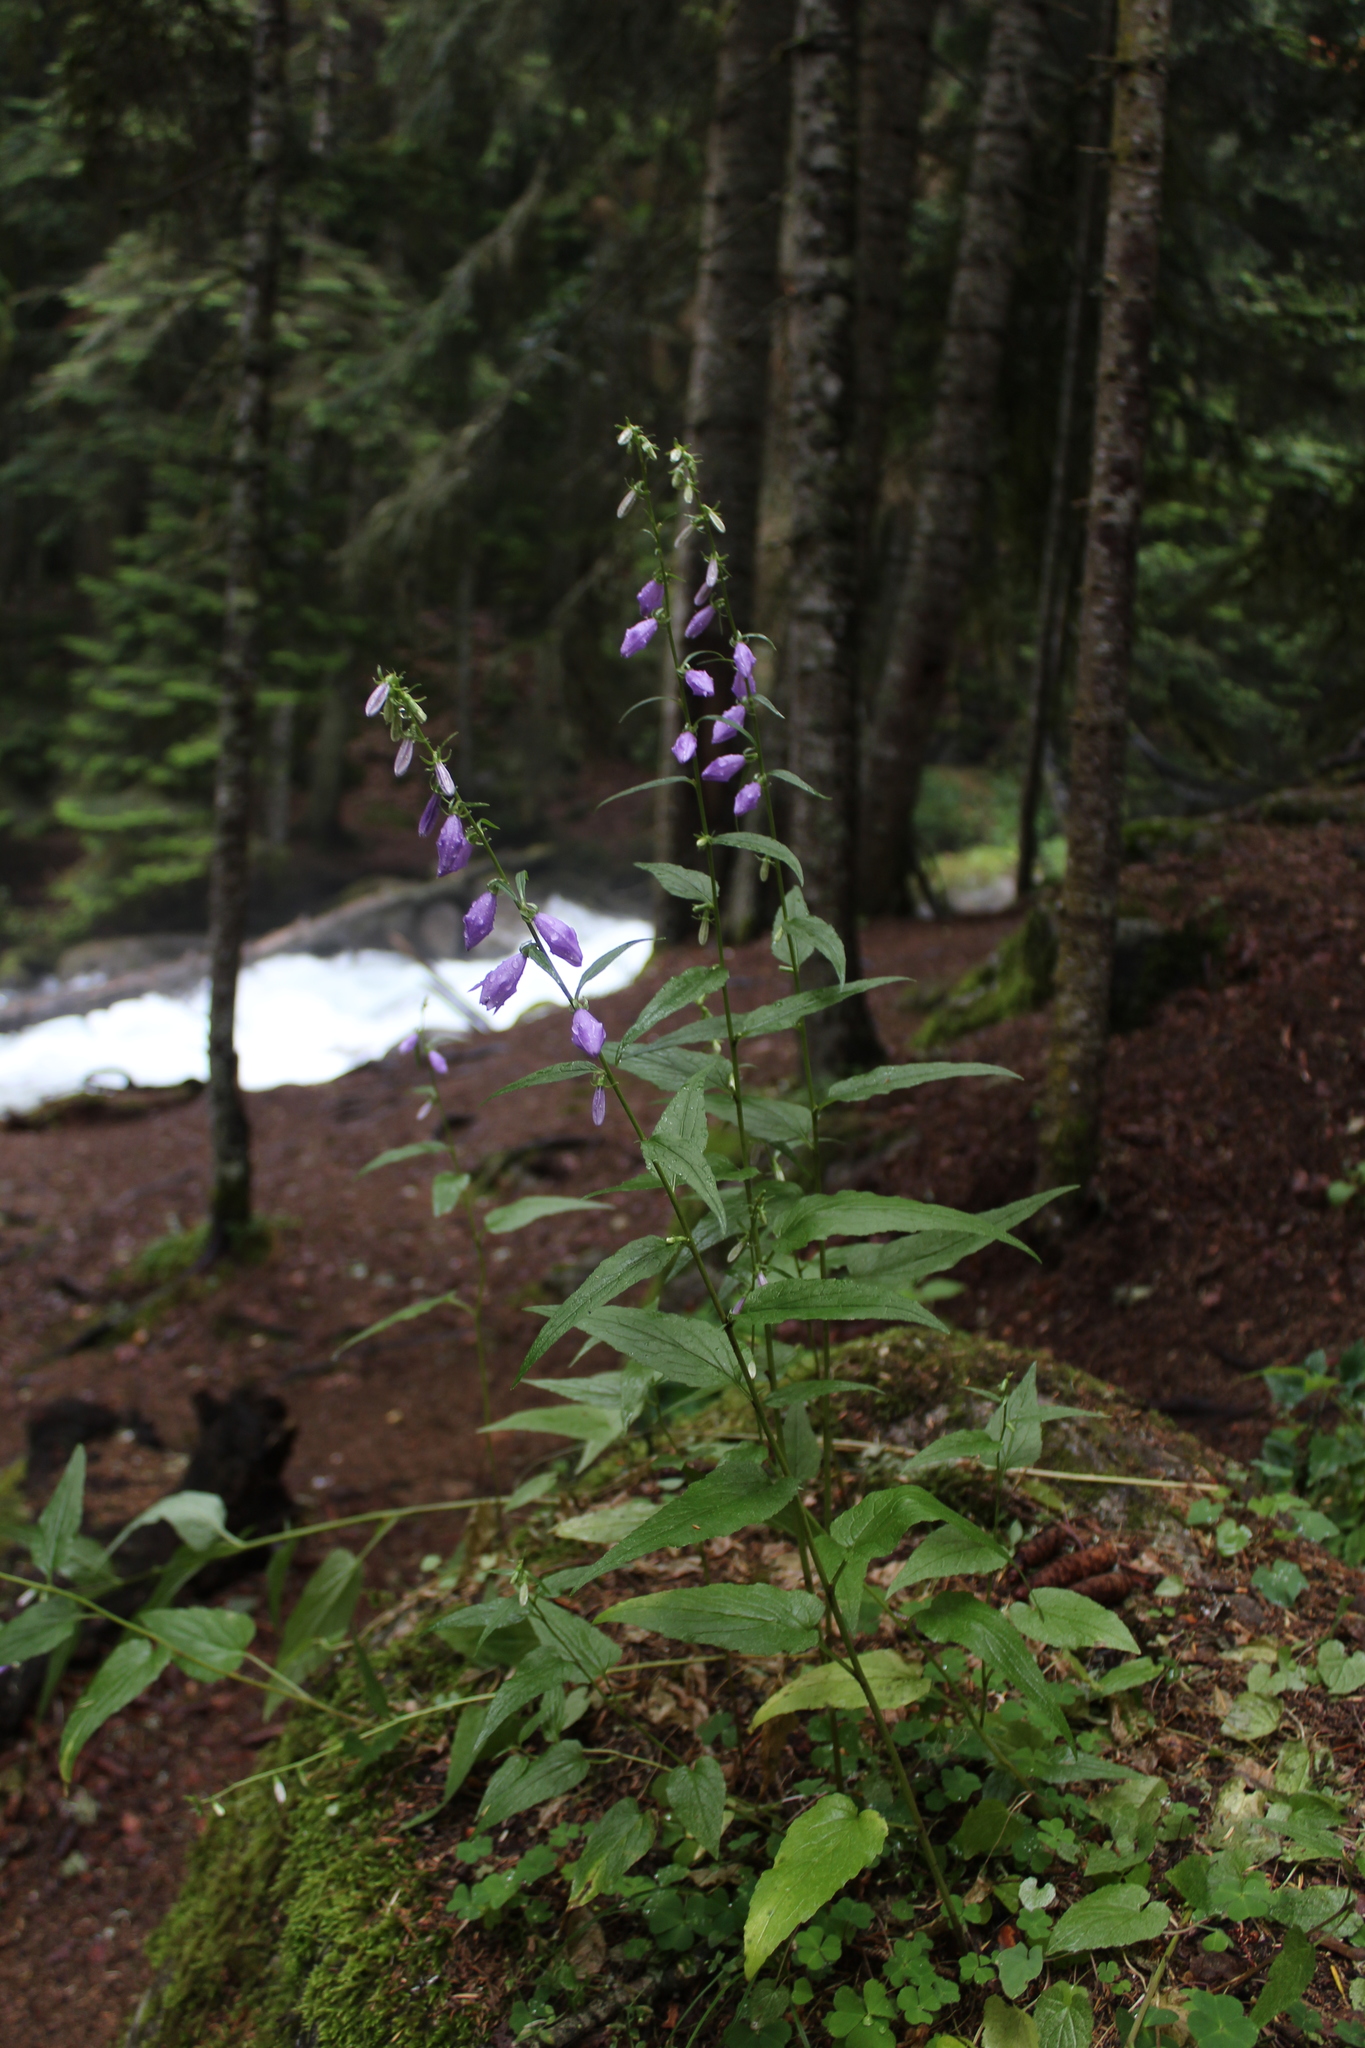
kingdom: Plantae
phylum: Tracheophyta
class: Magnoliopsida
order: Asterales
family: Campanulaceae
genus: Campanula
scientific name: Campanula rapunculoides
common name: Creeping bellflower
